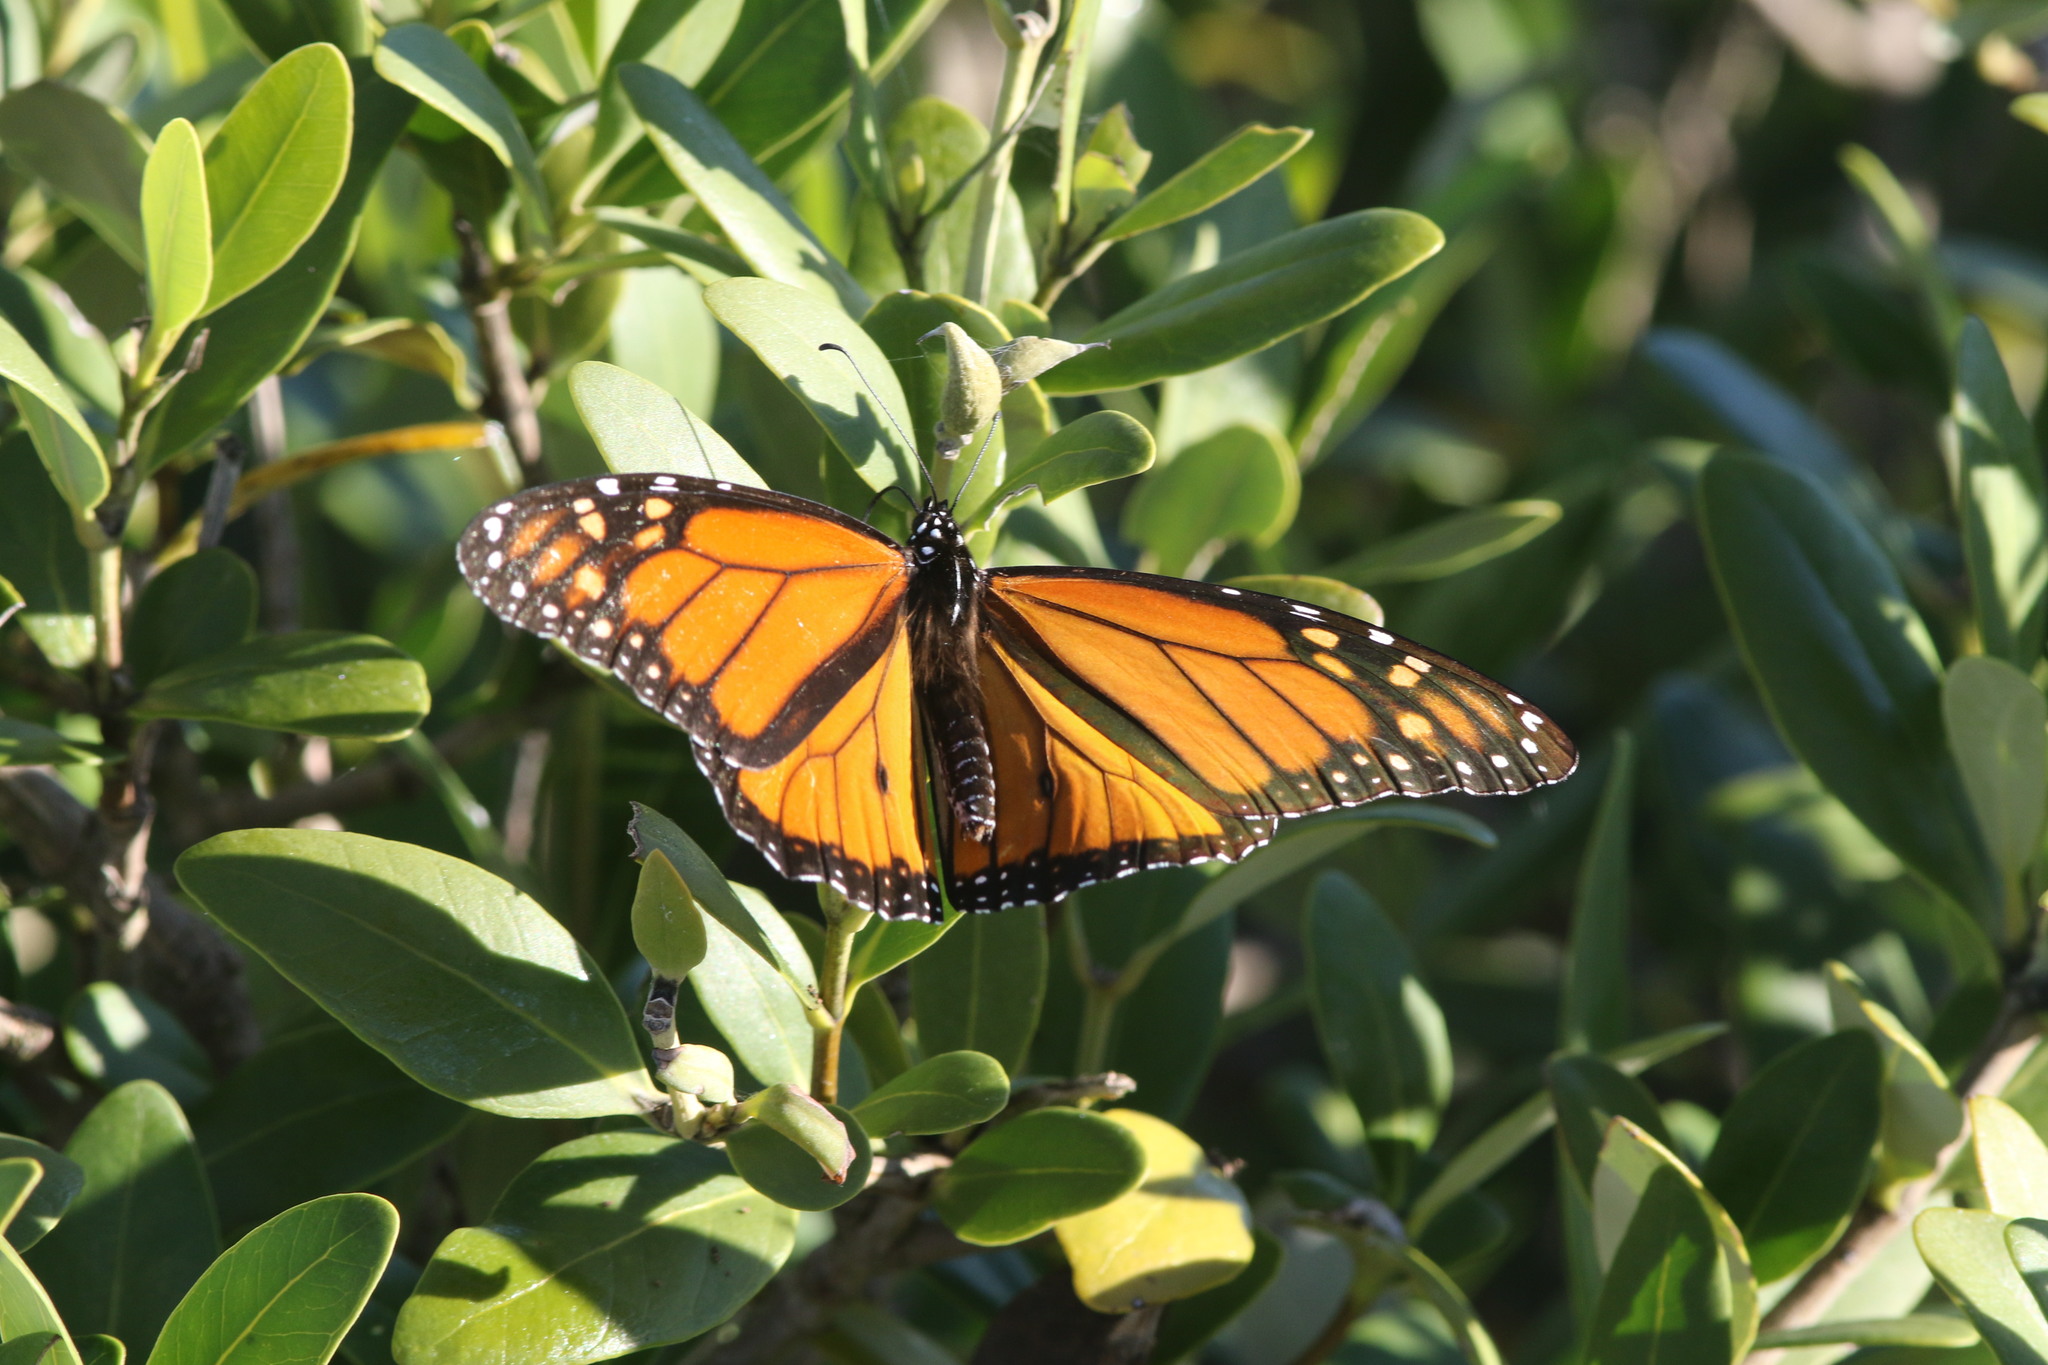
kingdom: Animalia
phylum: Arthropoda
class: Insecta
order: Lepidoptera
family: Nymphalidae
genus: Danaus
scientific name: Danaus plexippus
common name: Monarch
